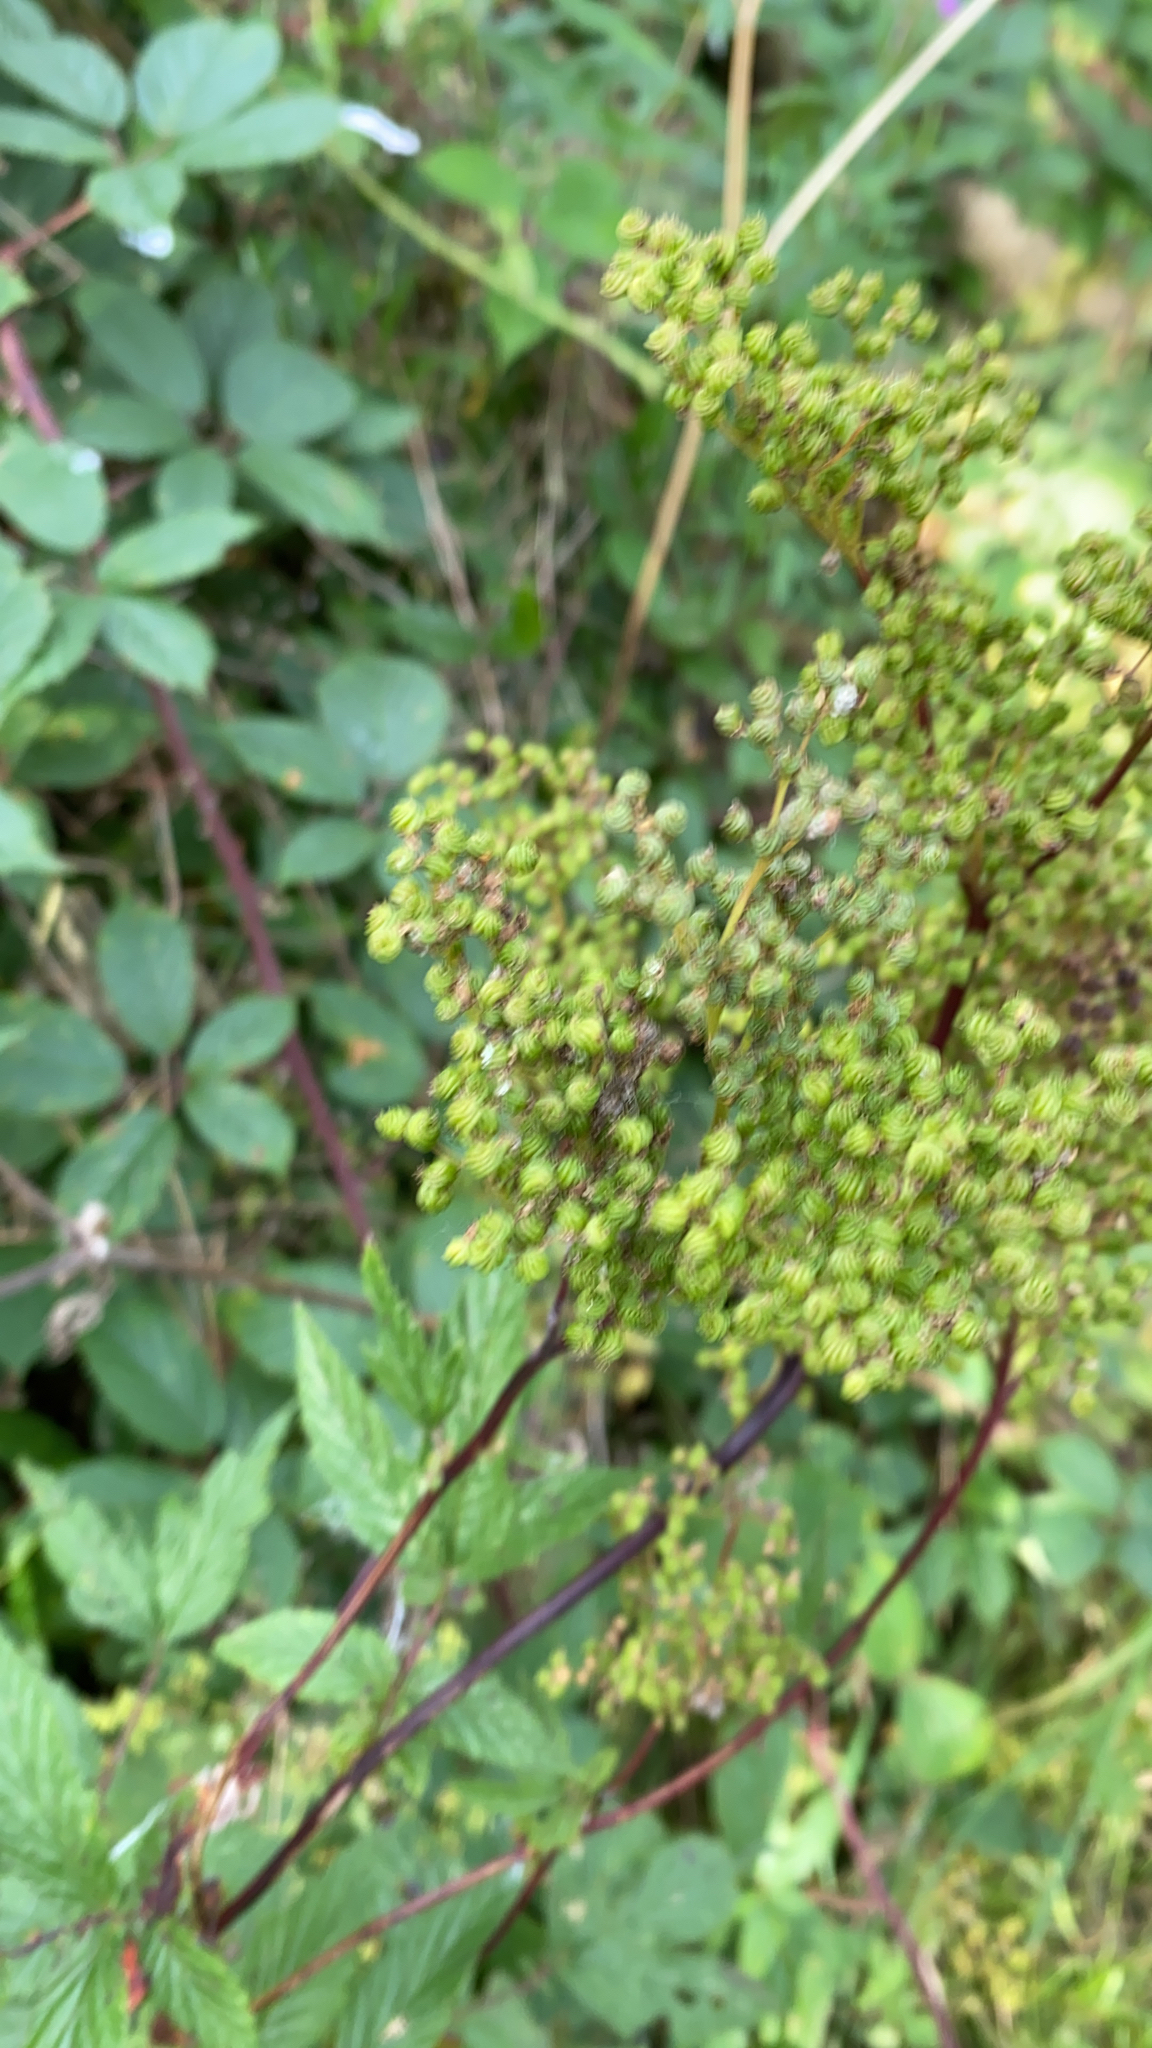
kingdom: Plantae
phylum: Tracheophyta
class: Magnoliopsida
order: Rosales
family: Rosaceae
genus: Filipendula
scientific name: Filipendula ulmaria
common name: Meadowsweet
